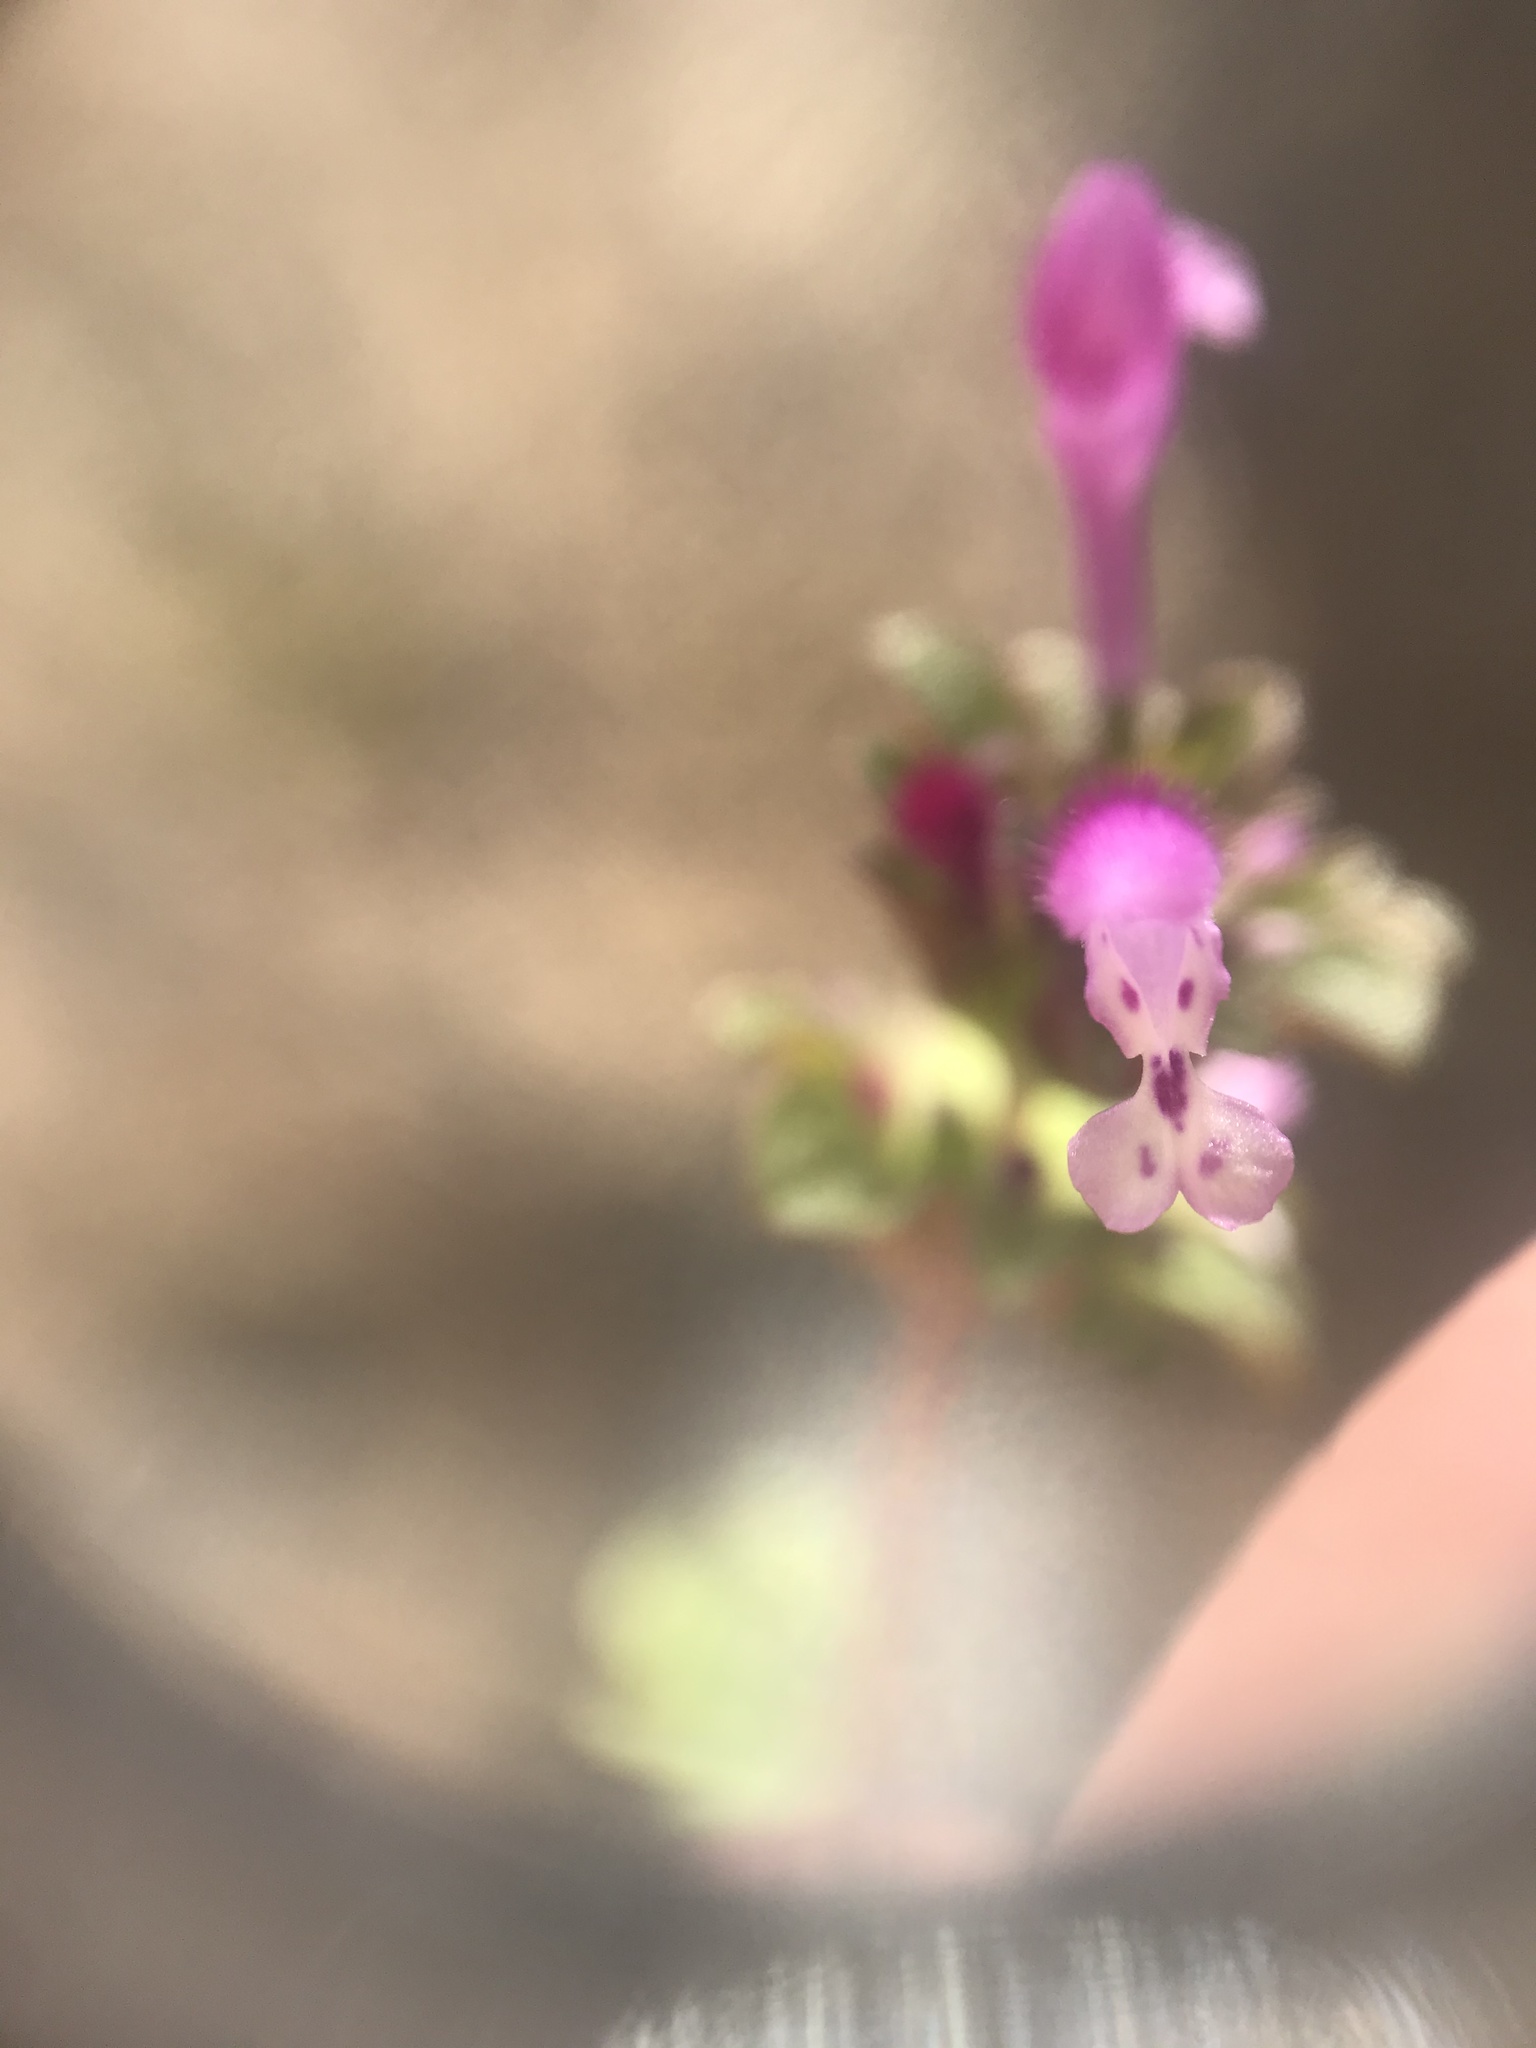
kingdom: Plantae
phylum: Tracheophyta
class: Magnoliopsida
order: Lamiales
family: Lamiaceae
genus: Lamium
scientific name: Lamium amplexicaule
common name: Henbit dead-nettle
